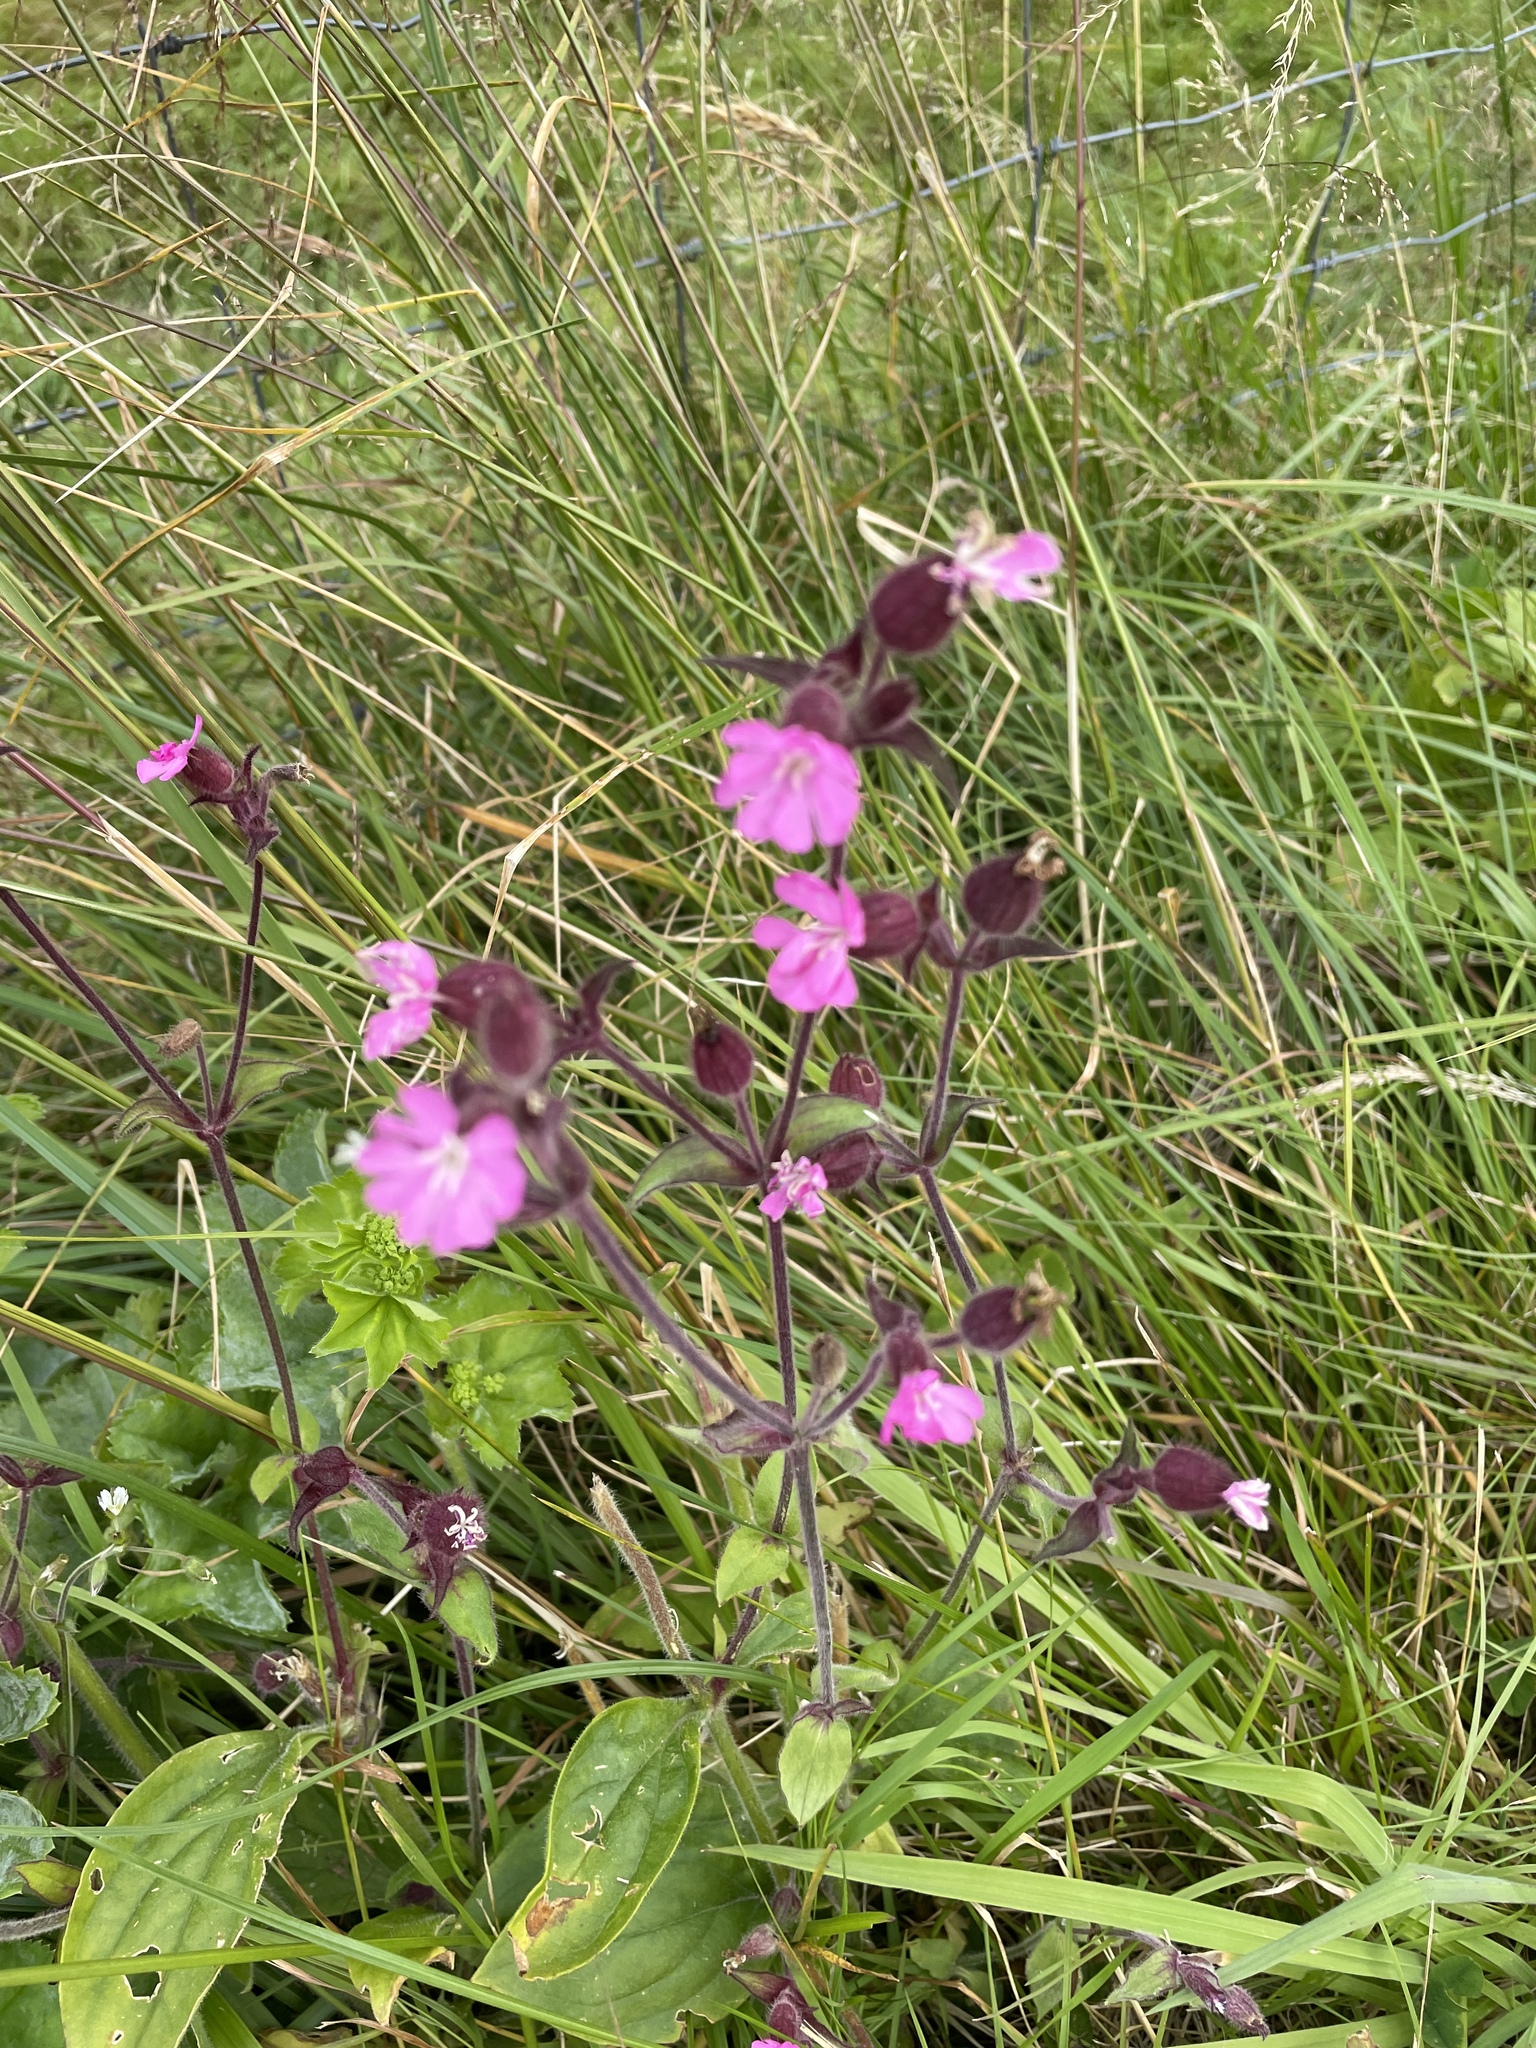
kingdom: Plantae
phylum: Tracheophyta
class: Magnoliopsida
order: Caryophyllales
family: Caryophyllaceae
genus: Silene
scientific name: Silene dioica
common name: Red campion
